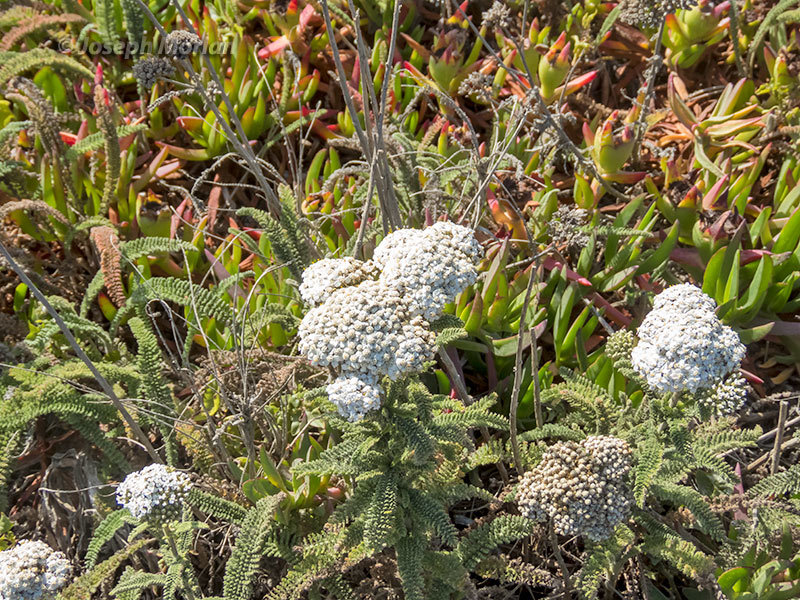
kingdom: Plantae
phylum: Tracheophyta
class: Magnoliopsida
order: Asterales
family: Asteraceae
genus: Achillea
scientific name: Achillea millefolium
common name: Yarrow
